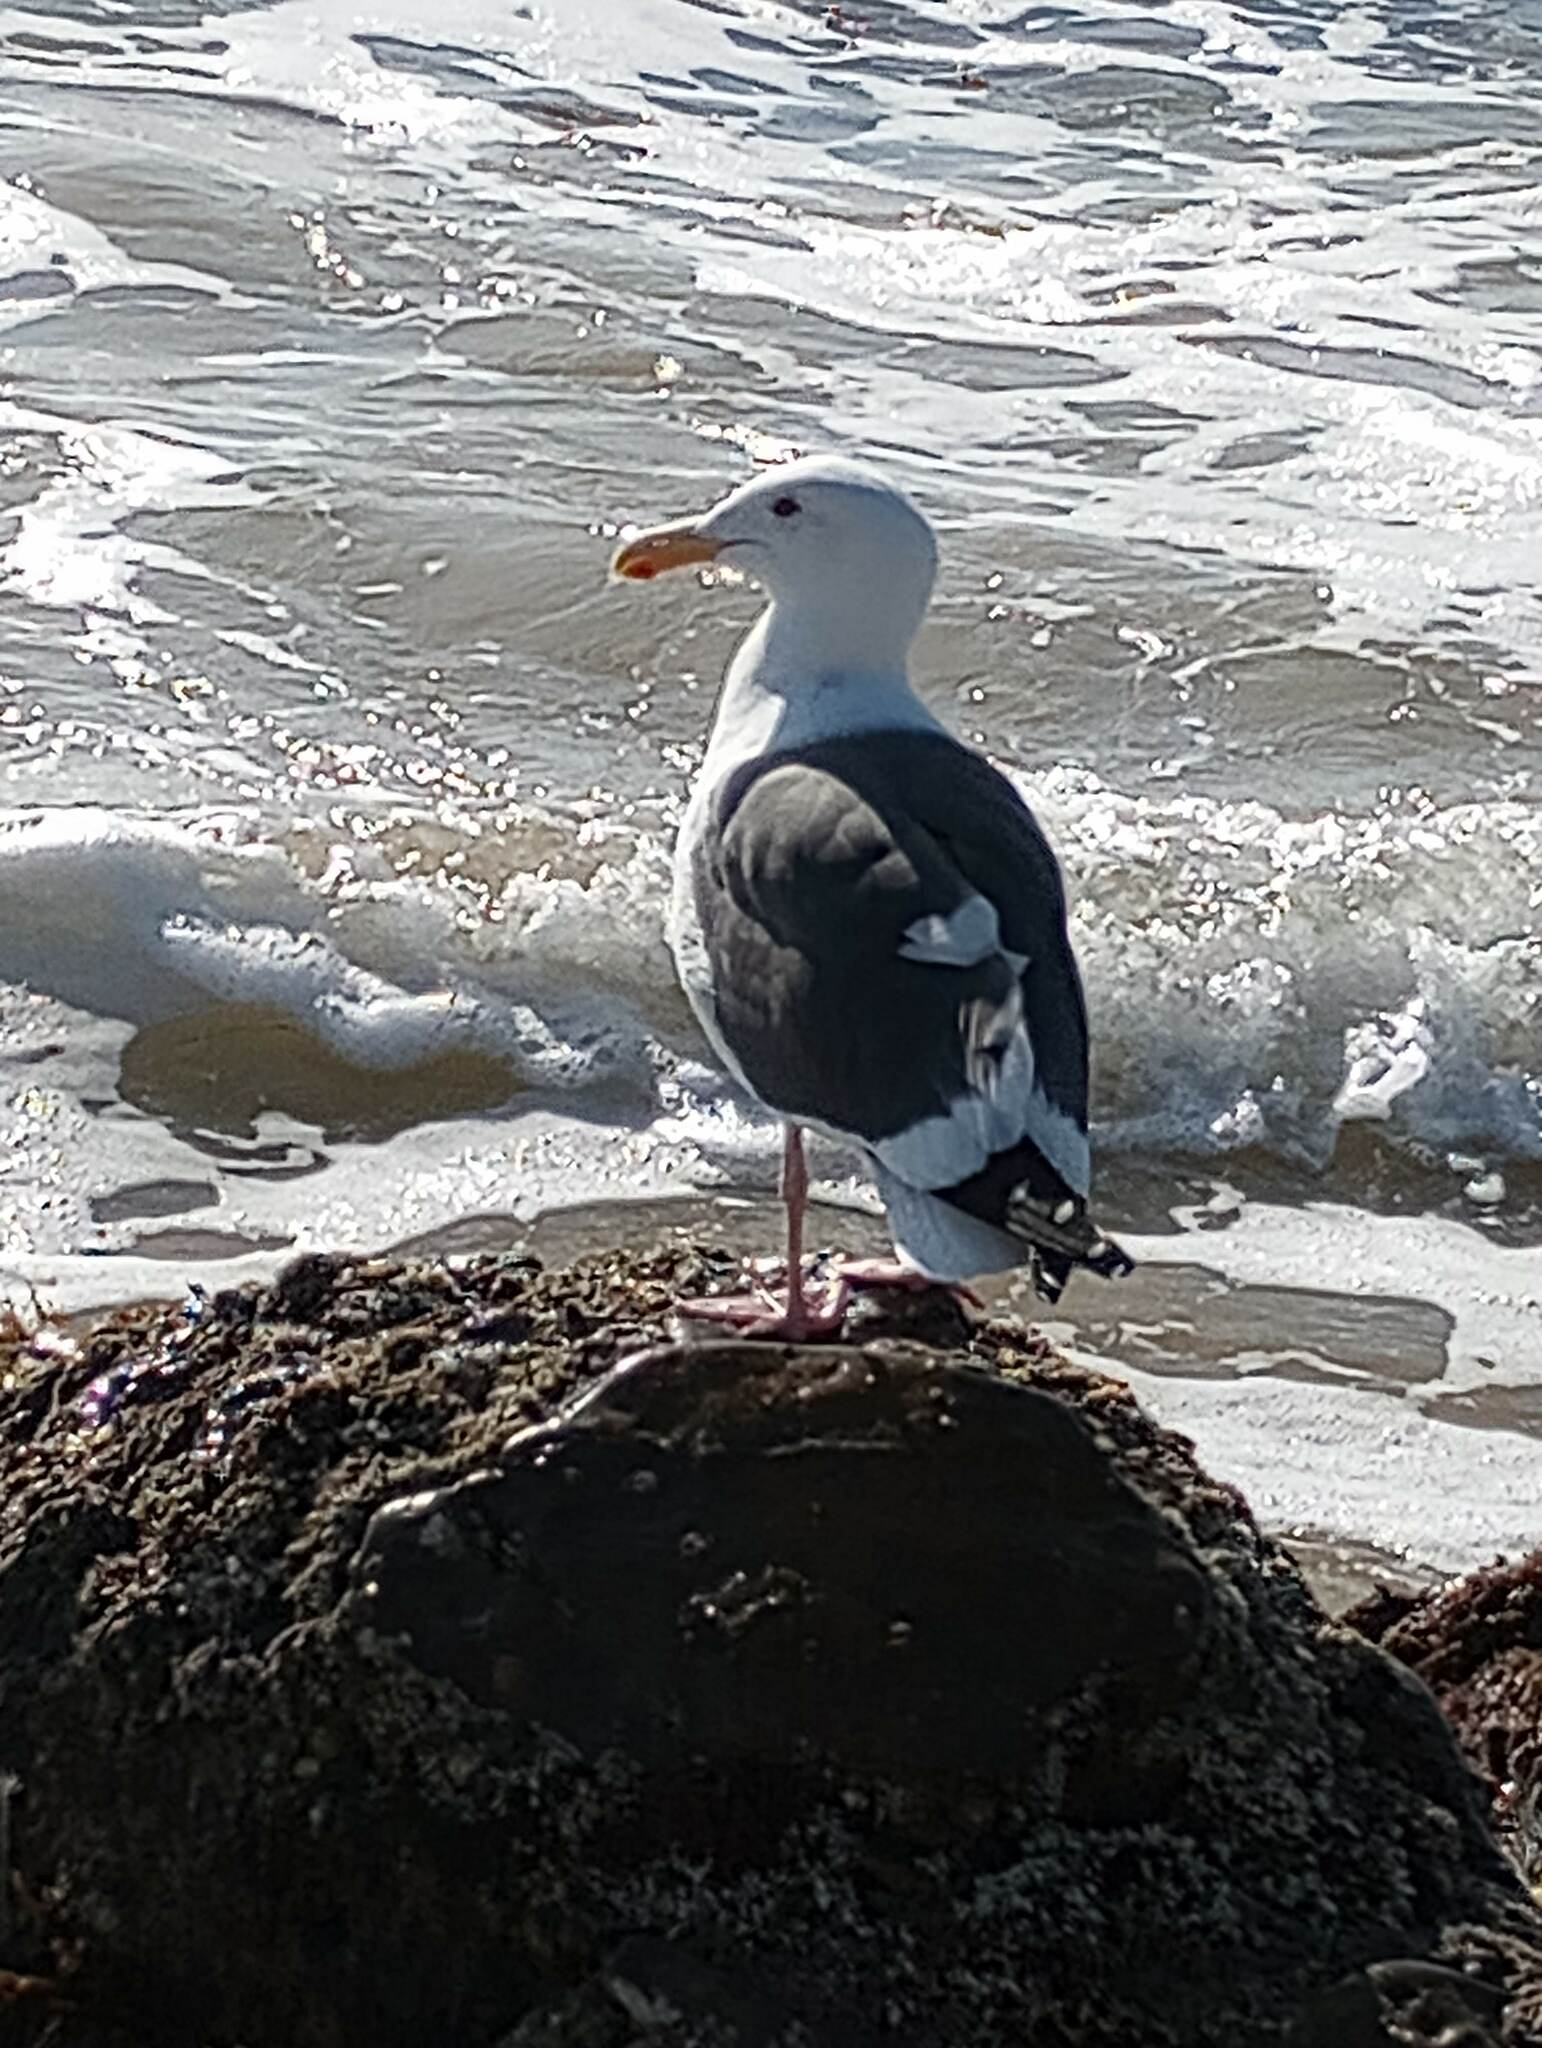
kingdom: Animalia
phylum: Chordata
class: Aves
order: Charadriiformes
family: Laridae
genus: Larus
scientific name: Larus occidentalis
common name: Western gull
